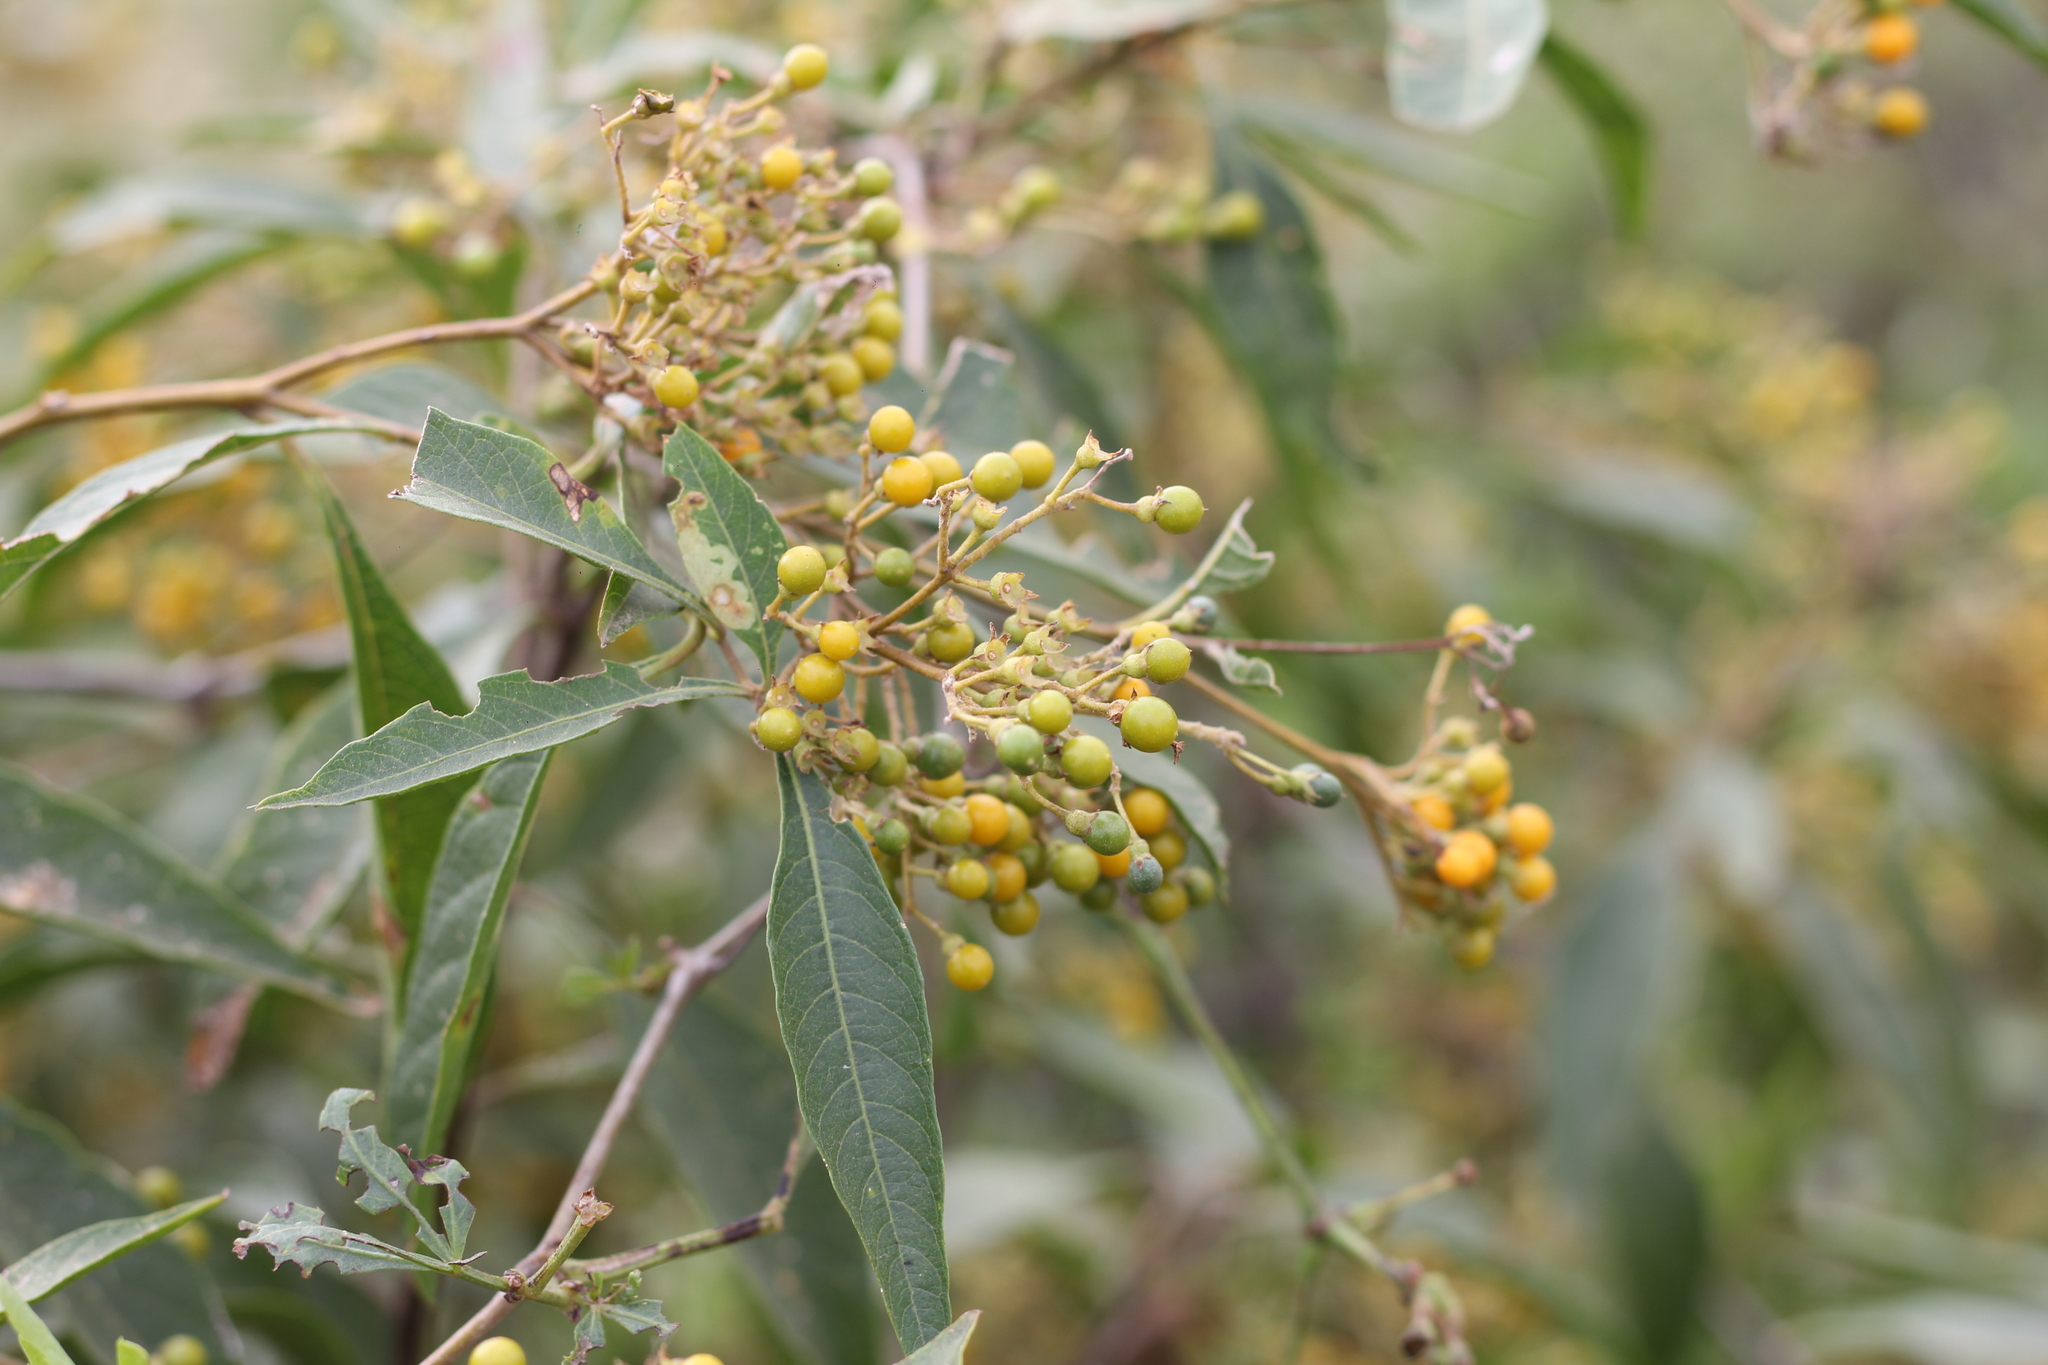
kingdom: Plantae
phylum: Tracheophyta
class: Magnoliopsida
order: Solanales
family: Solanaceae
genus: Solanum
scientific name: Solanum argentinum
